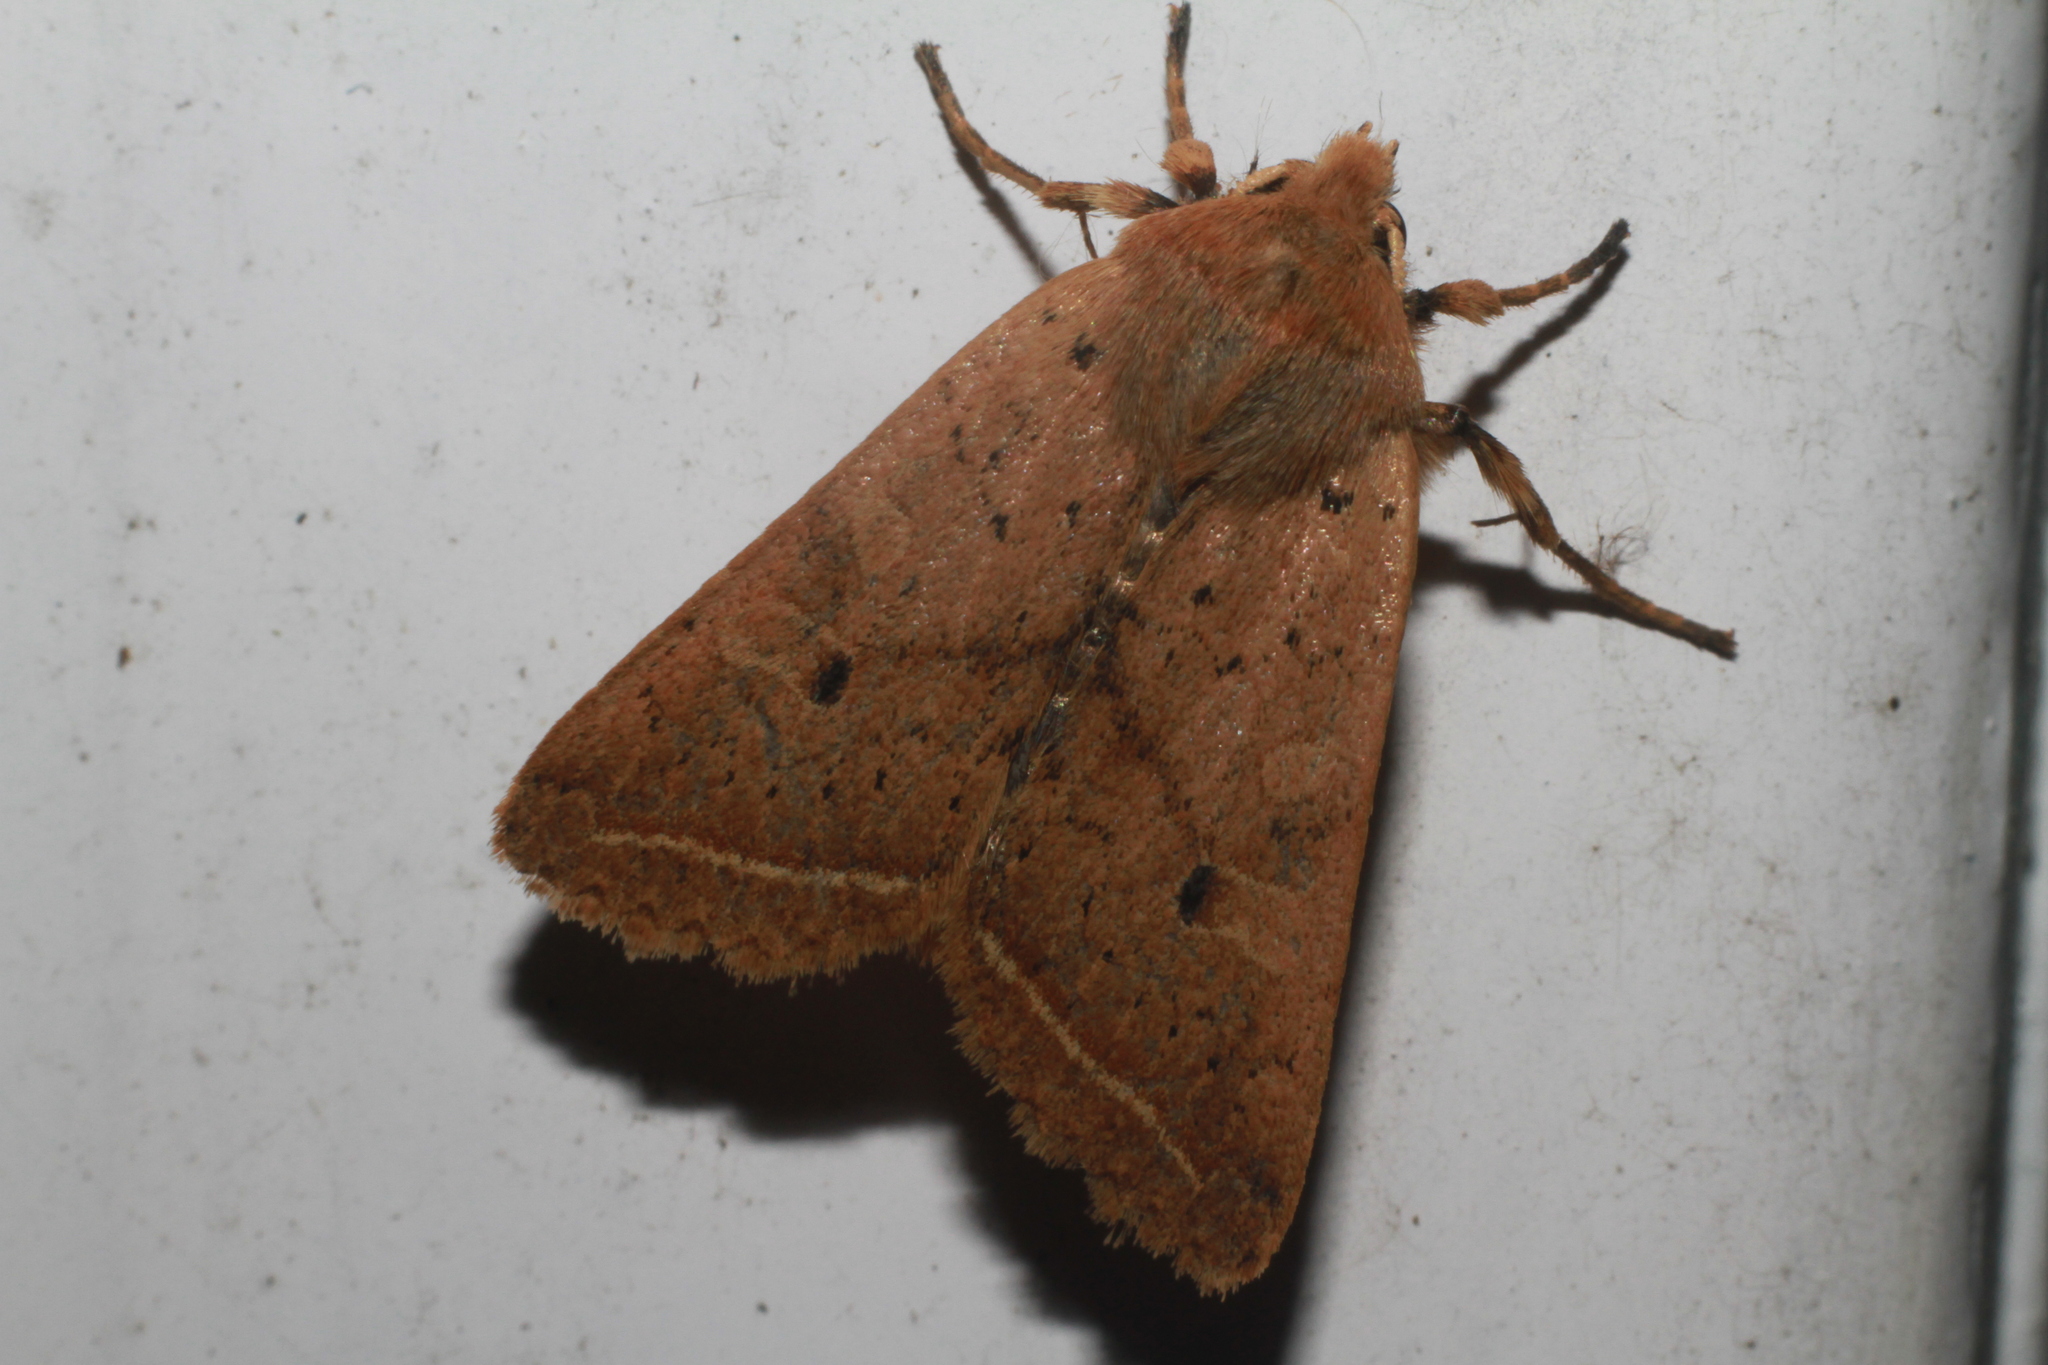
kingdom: Animalia
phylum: Arthropoda
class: Insecta
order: Lepidoptera
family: Noctuidae
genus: Agrochola
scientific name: Agrochola macilenta
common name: Yellow-line quaker
